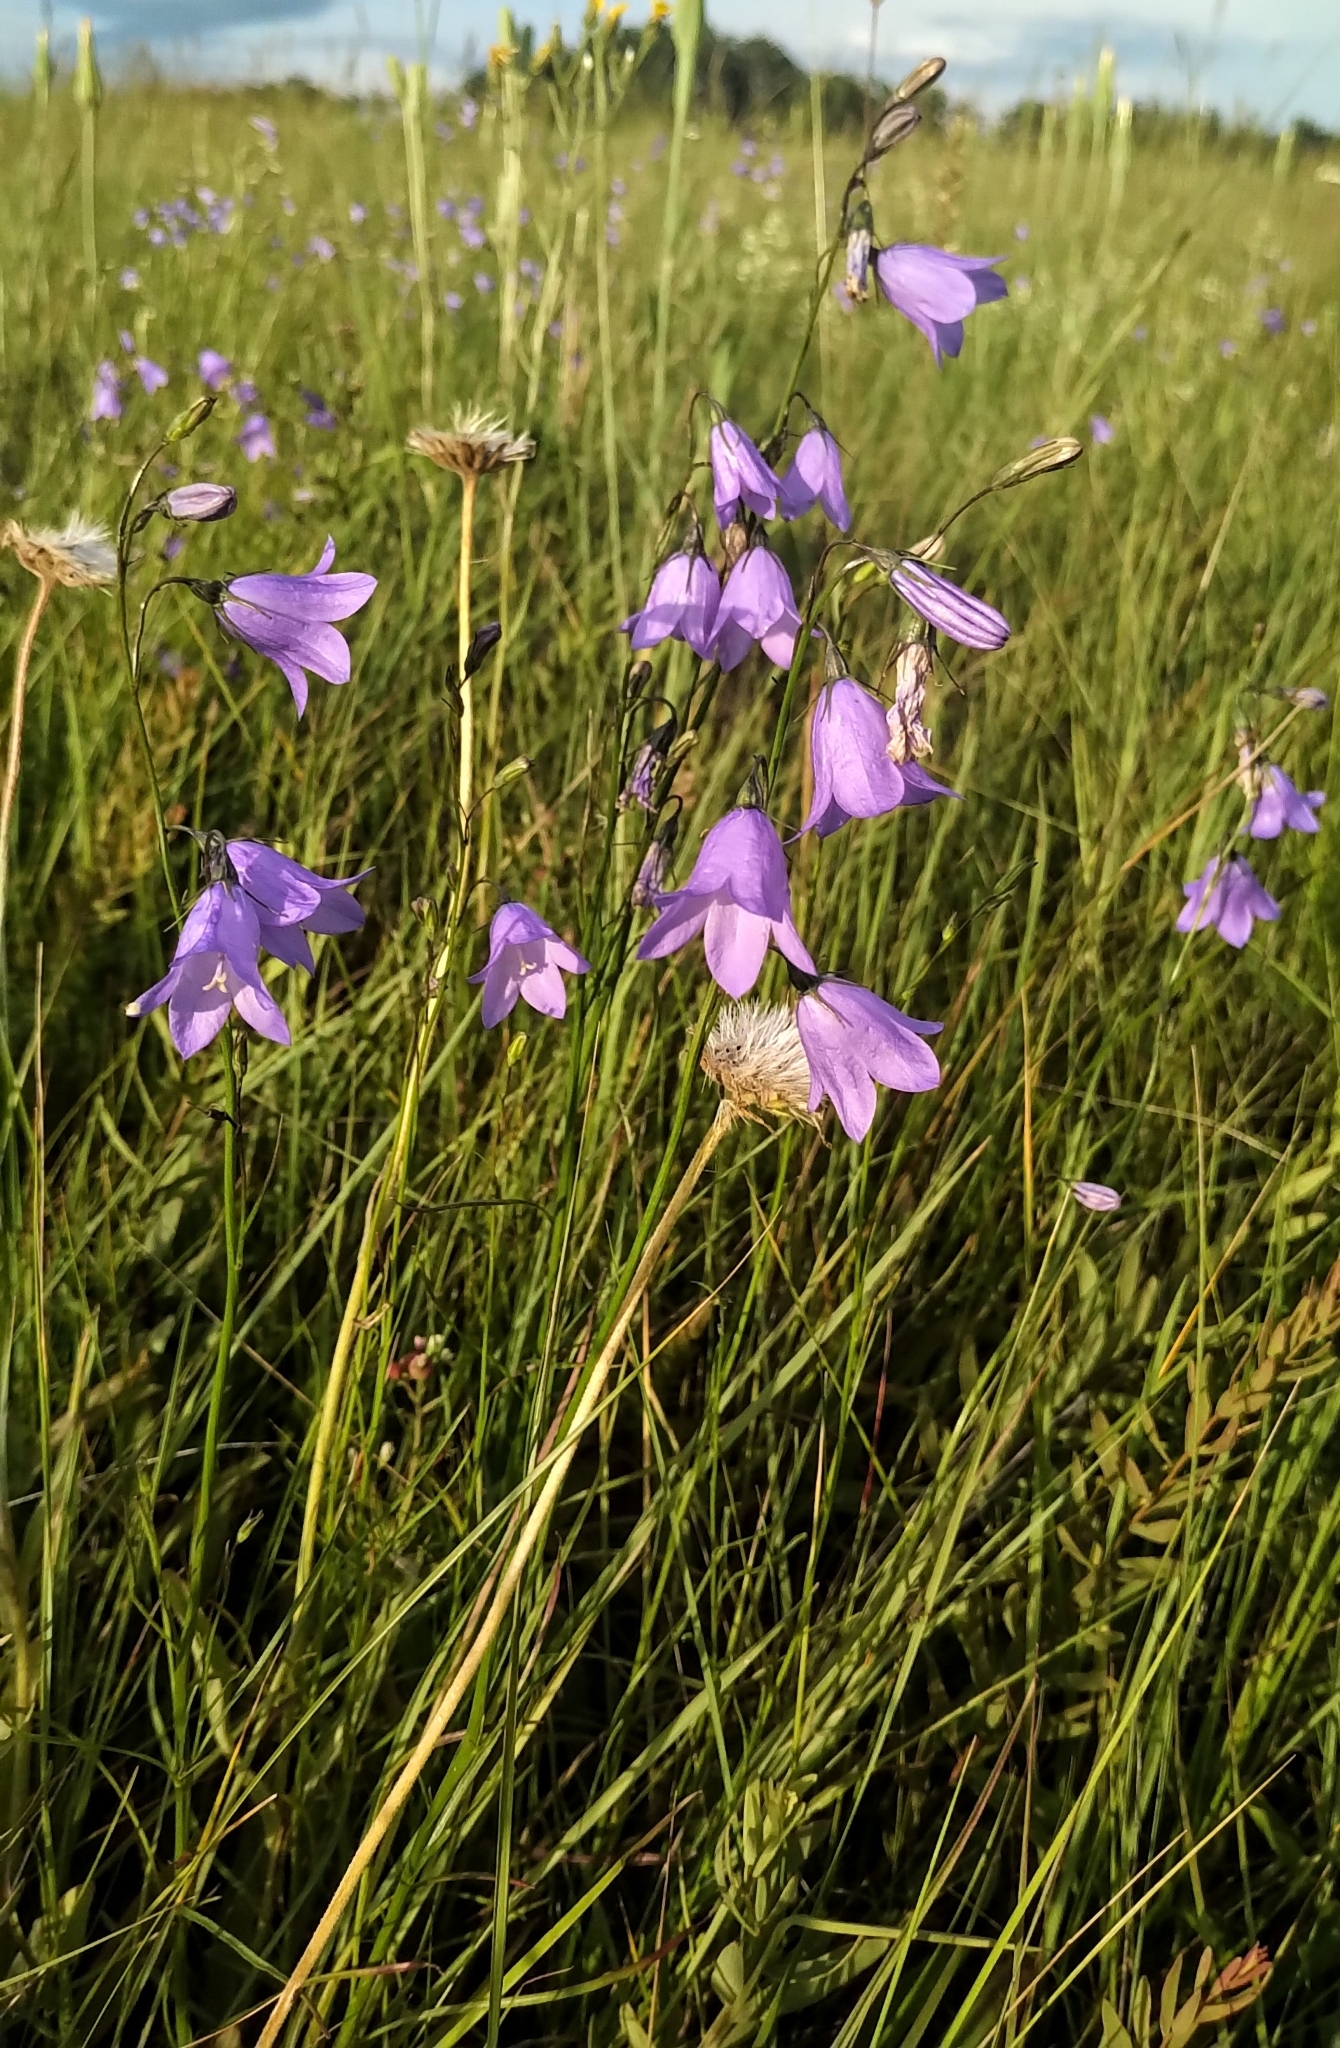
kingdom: Plantae
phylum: Tracheophyta
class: Magnoliopsida
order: Asterales
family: Campanulaceae
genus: Campanula
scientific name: Campanula alaskana
